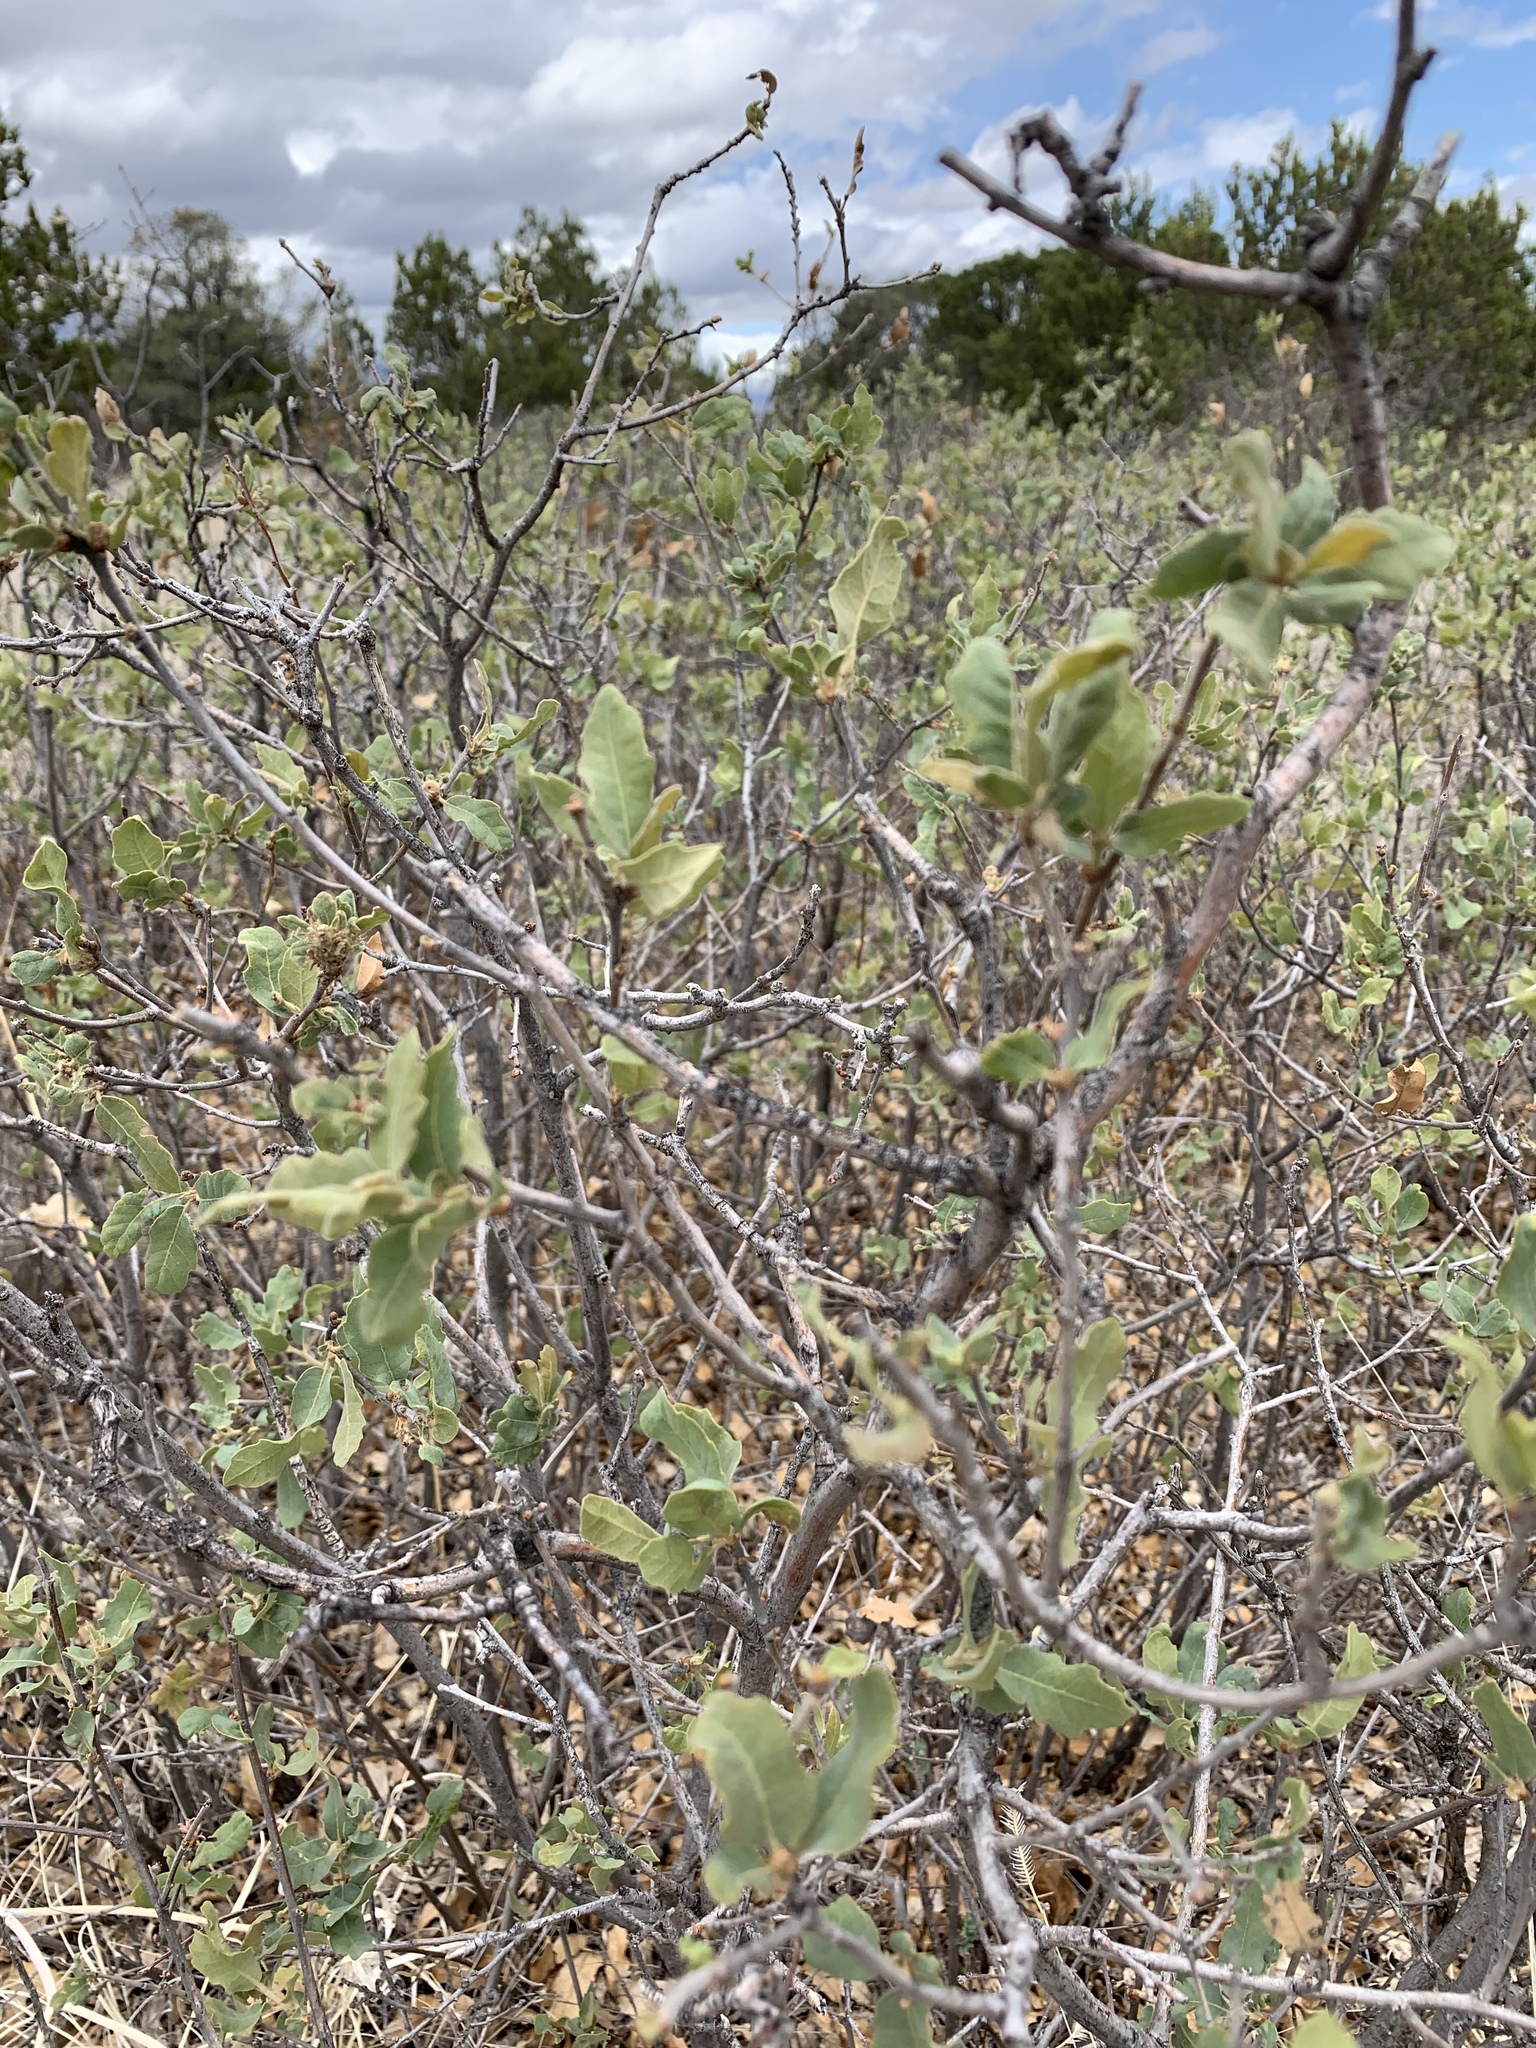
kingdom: Plantae
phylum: Tracheophyta
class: Magnoliopsida
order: Fagales
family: Fagaceae
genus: Quercus
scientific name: Quercus undulata
